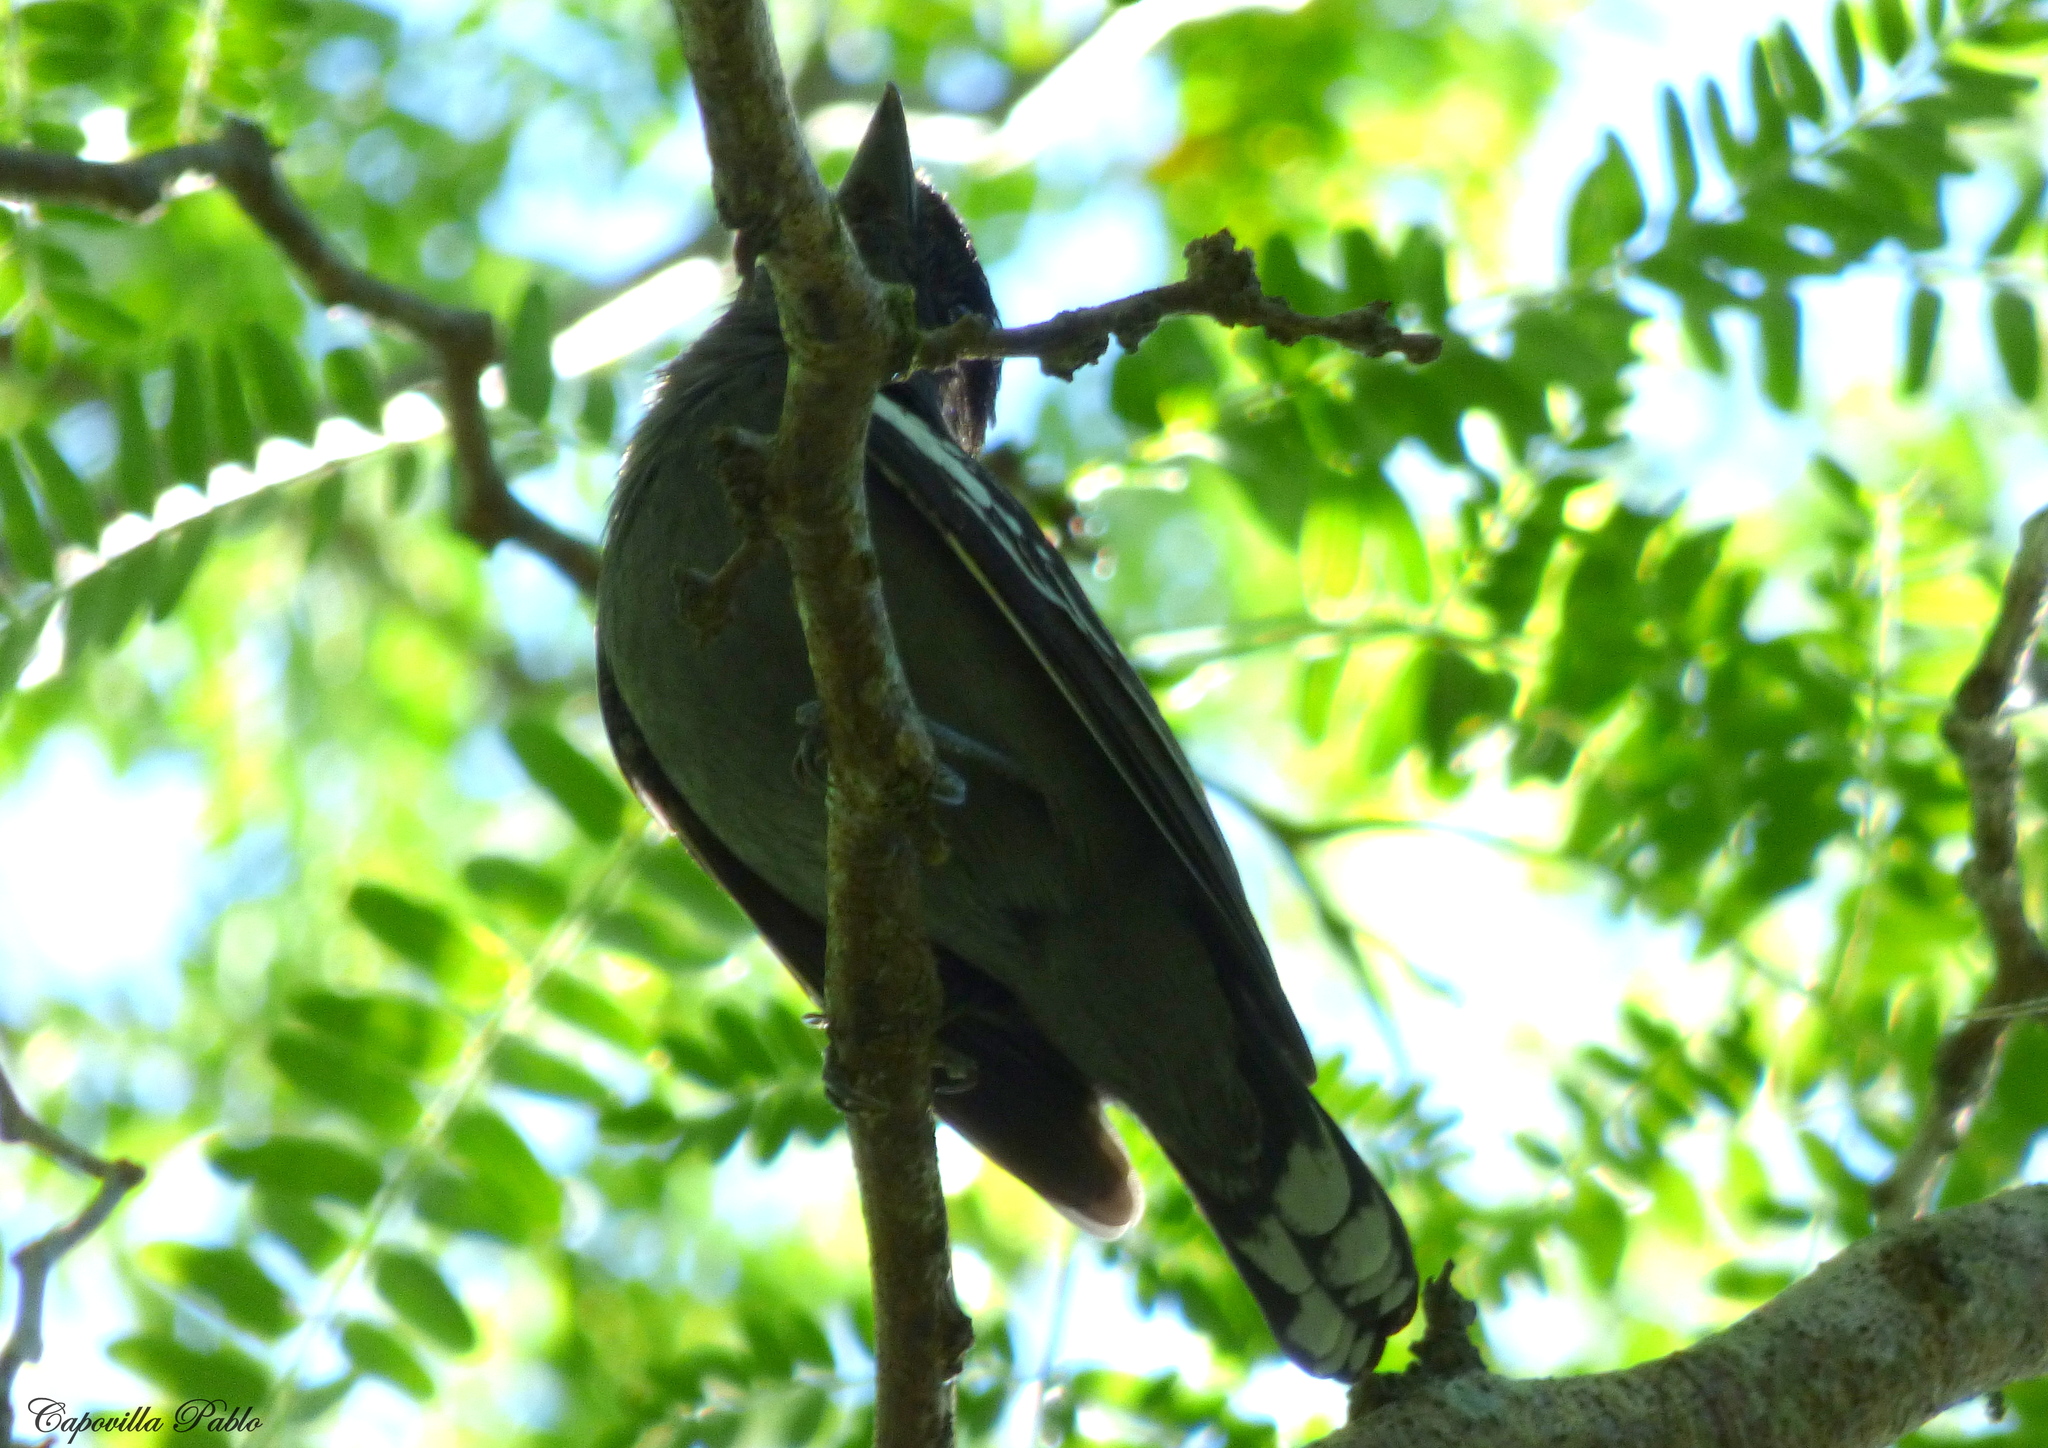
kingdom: Animalia
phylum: Chordata
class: Aves
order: Passeriformes
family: Cotingidae
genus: Pachyramphus
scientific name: Pachyramphus polychopterus
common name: White-winged becard
